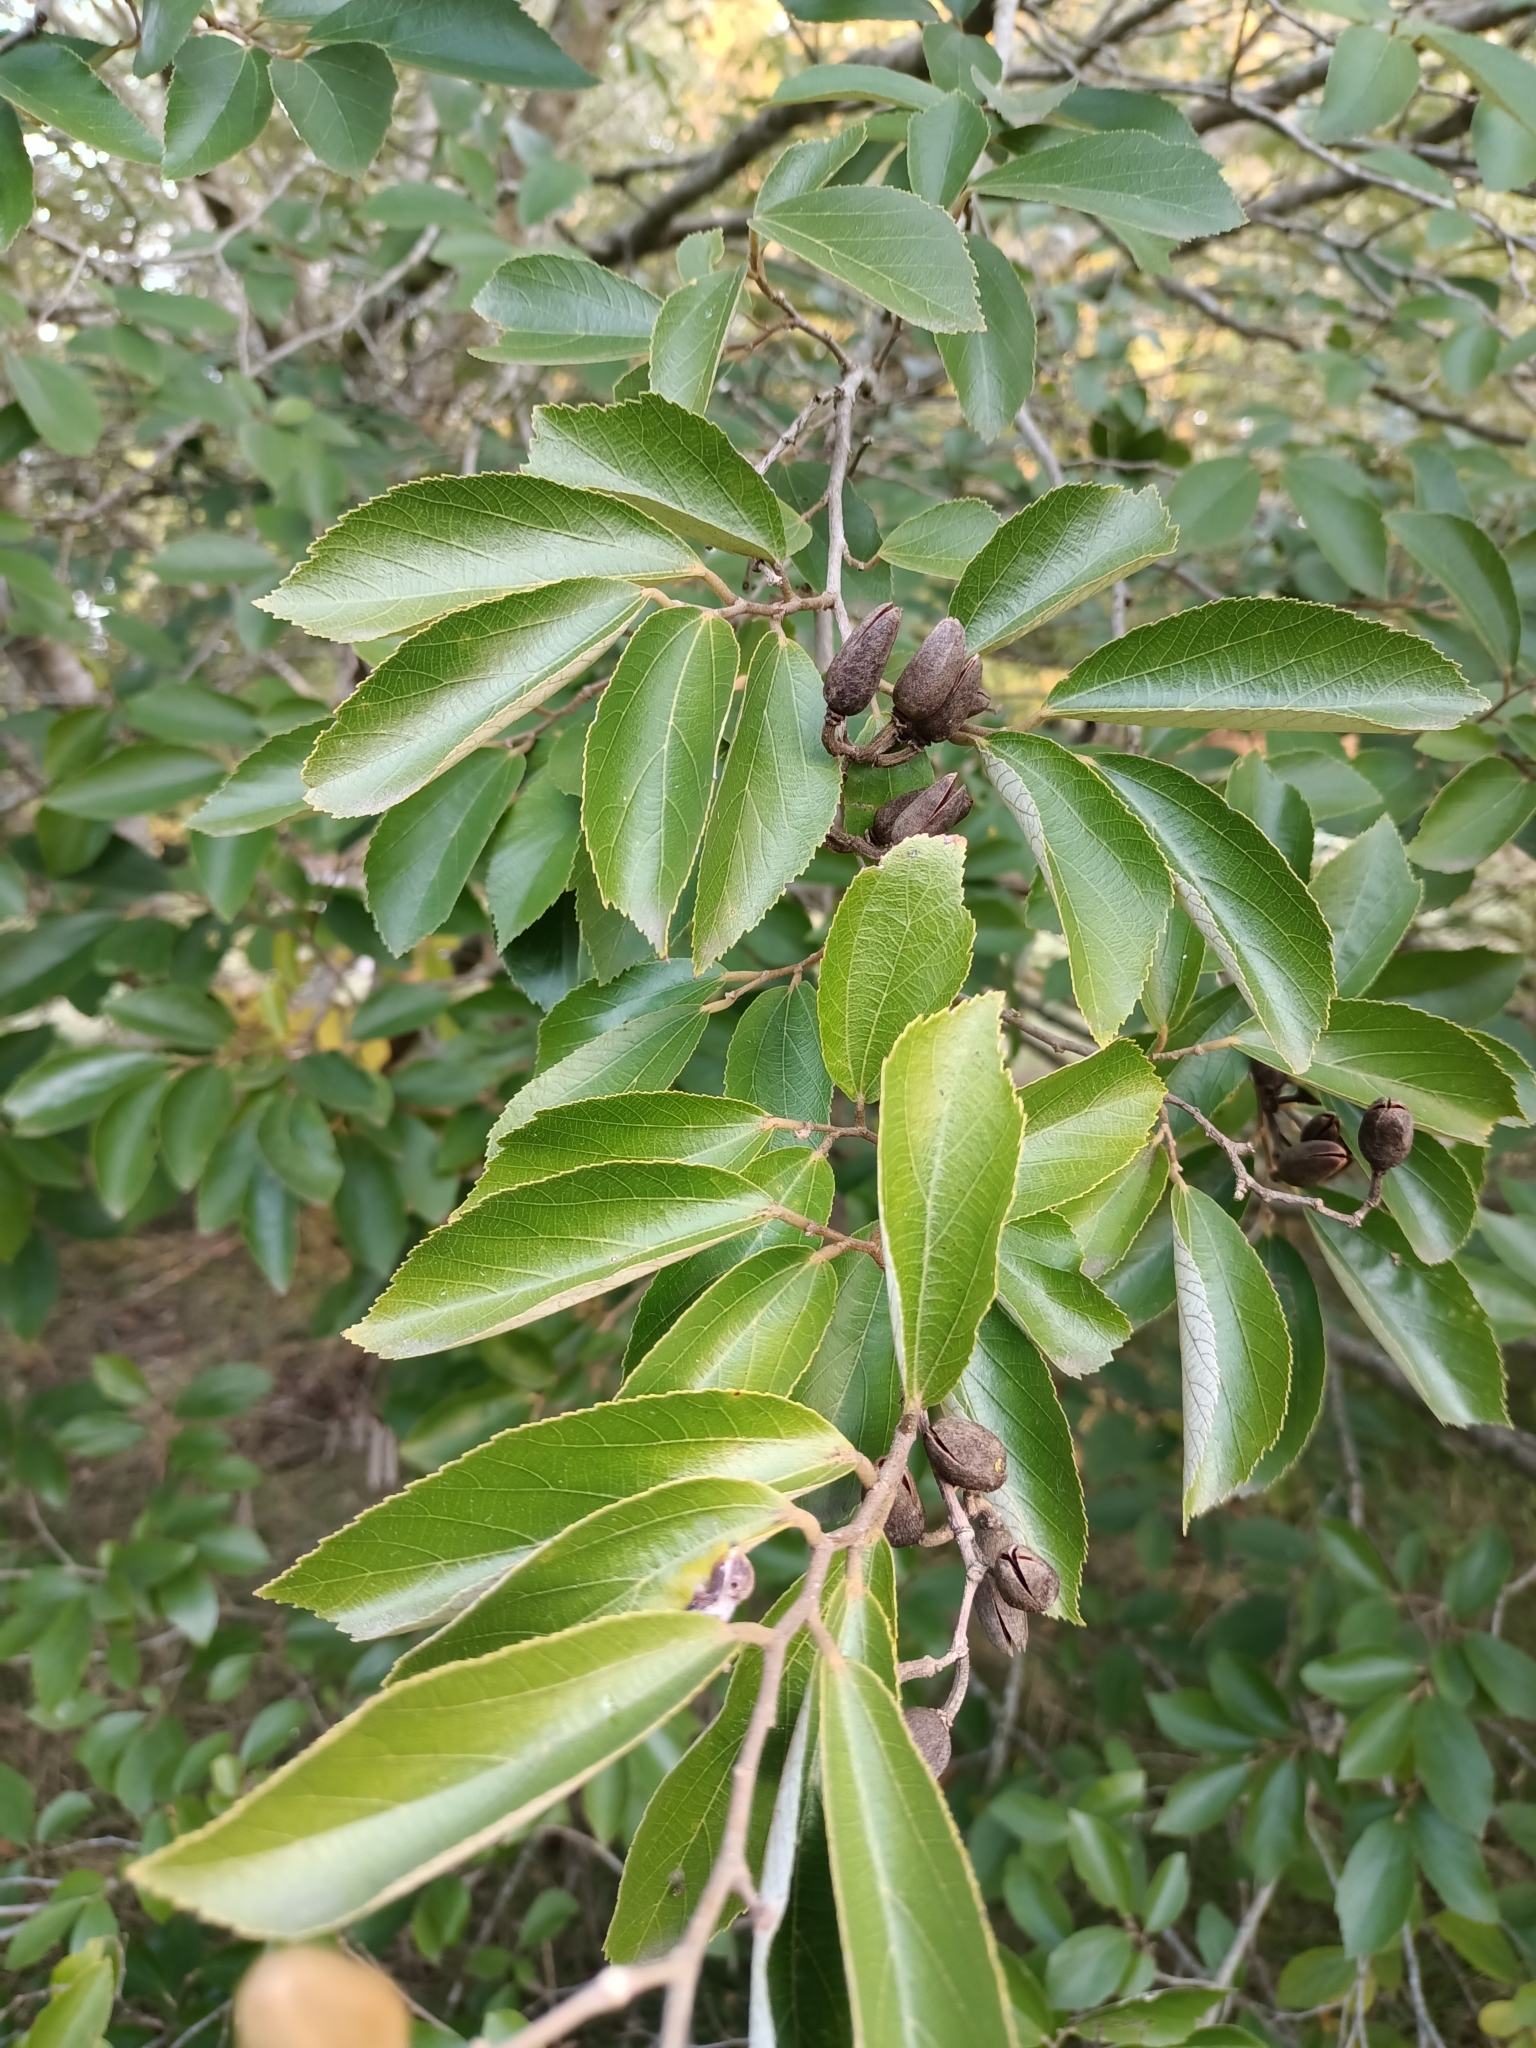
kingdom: Plantae
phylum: Tracheophyta
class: Magnoliopsida
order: Malvales
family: Malvaceae
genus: Luehea
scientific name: Luehea divaricata
